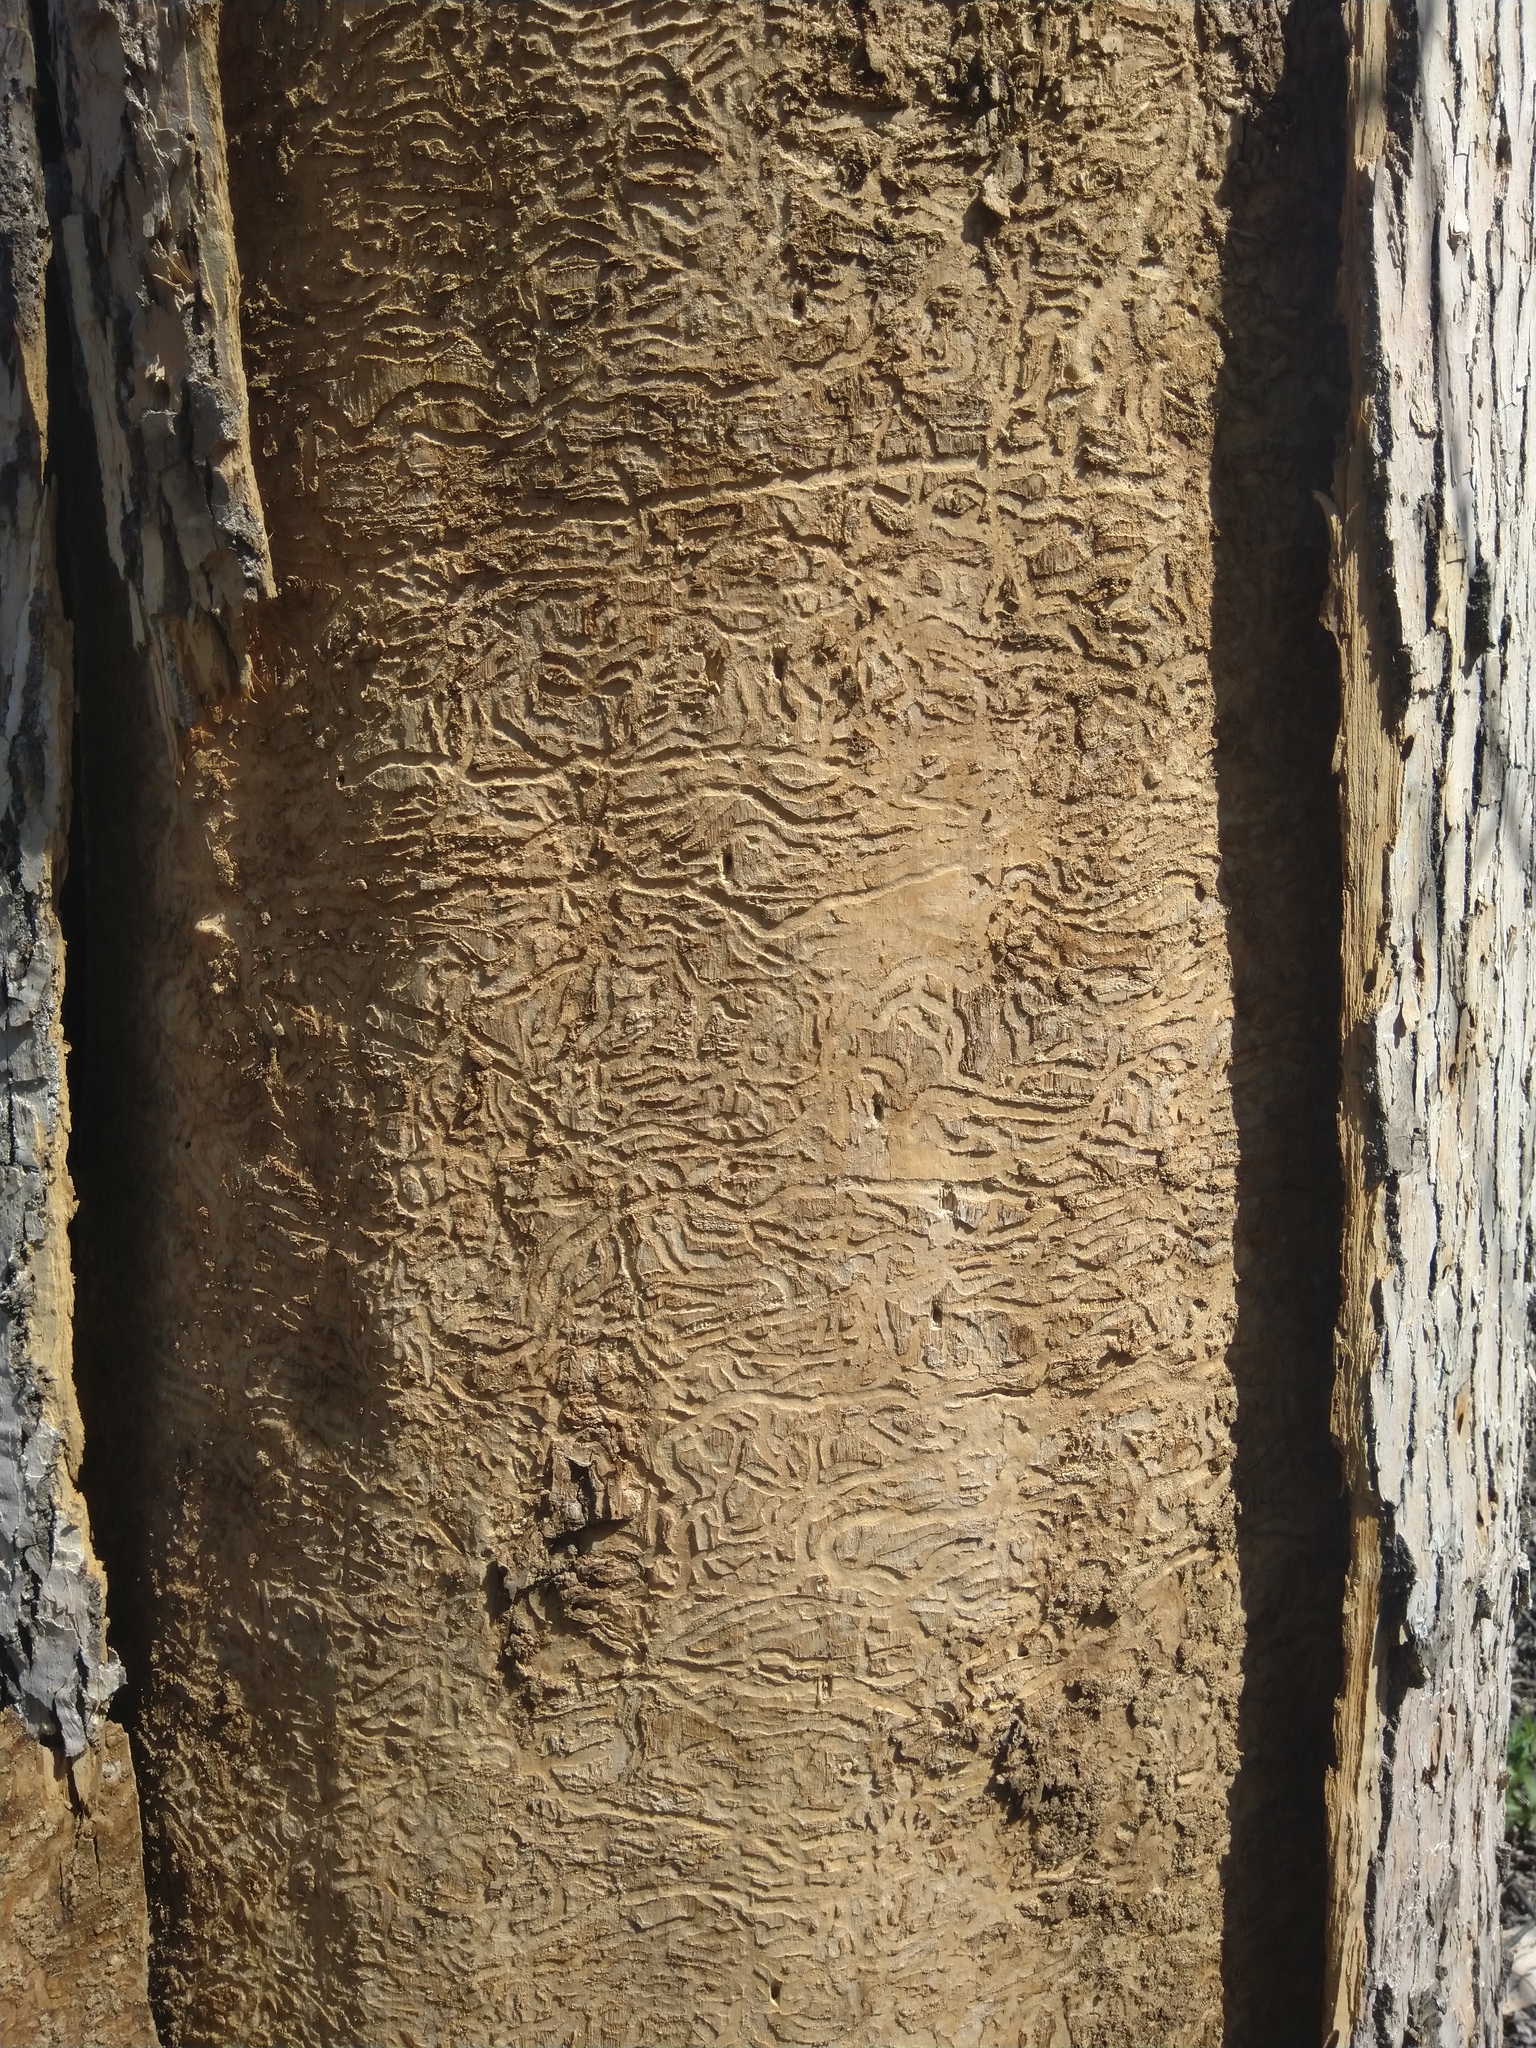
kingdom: Animalia
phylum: Arthropoda
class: Insecta
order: Coleoptera
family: Buprestidae
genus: Agrilus
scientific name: Agrilus planipennis
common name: Emerald ash borer
